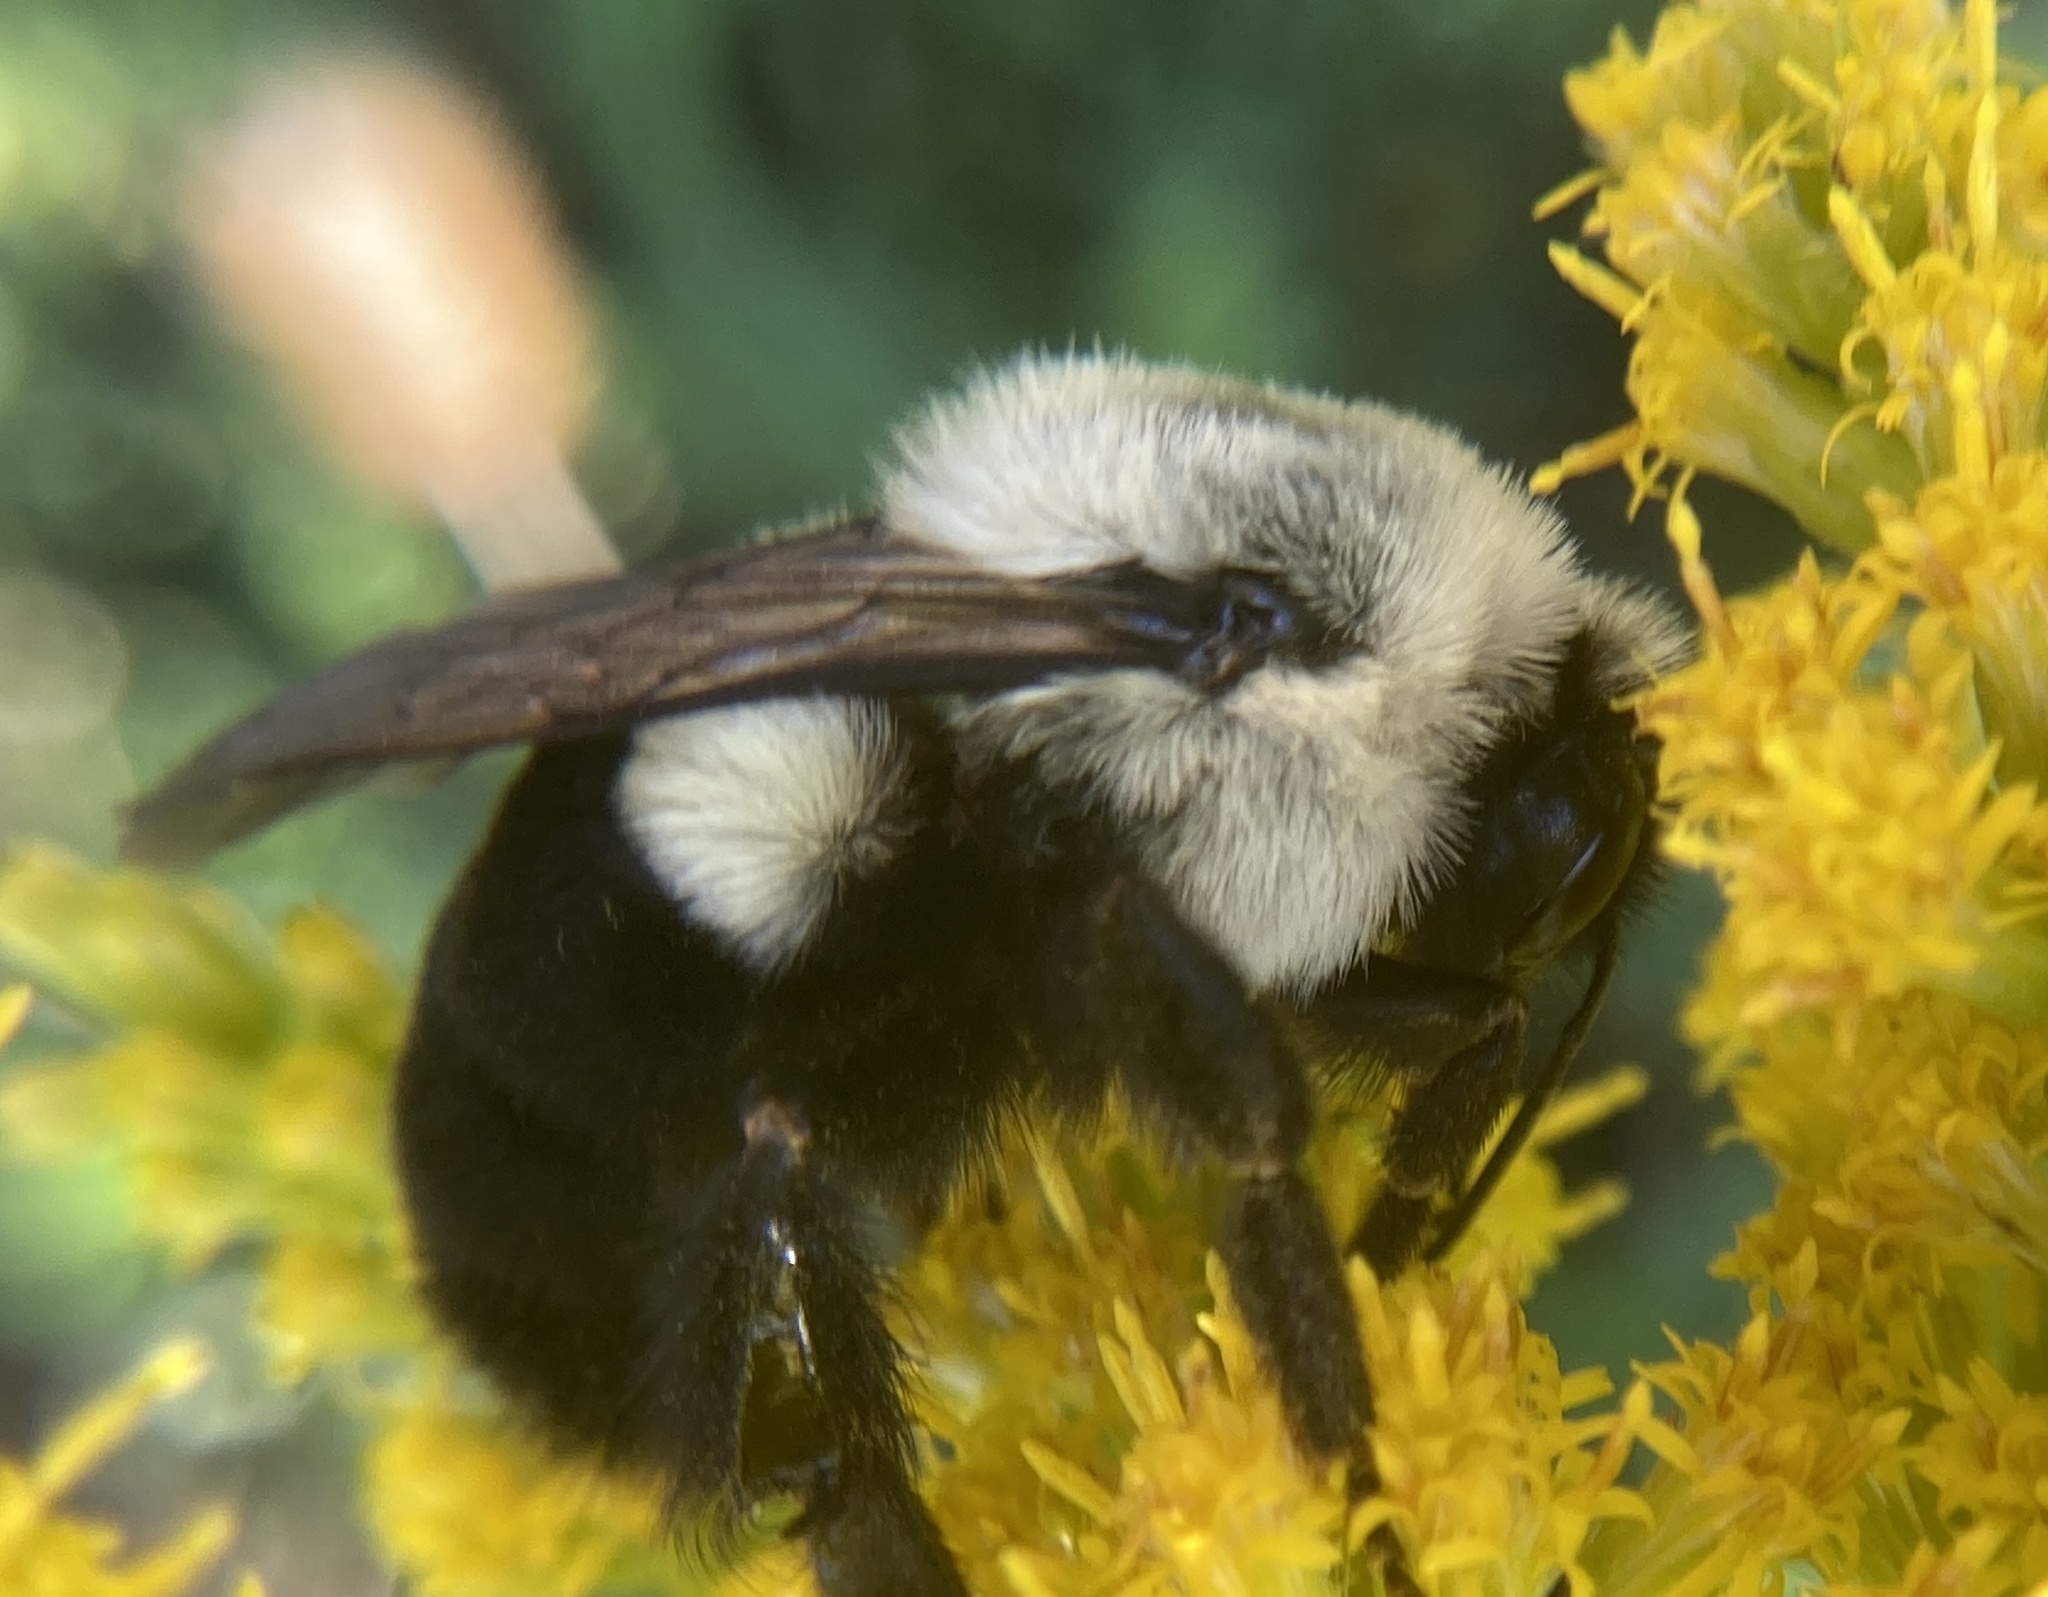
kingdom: Animalia
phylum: Arthropoda
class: Insecta
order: Hymenoptera
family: Apidae
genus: Bombus
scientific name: Bombus impatiens
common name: Common eastern bumble bee
